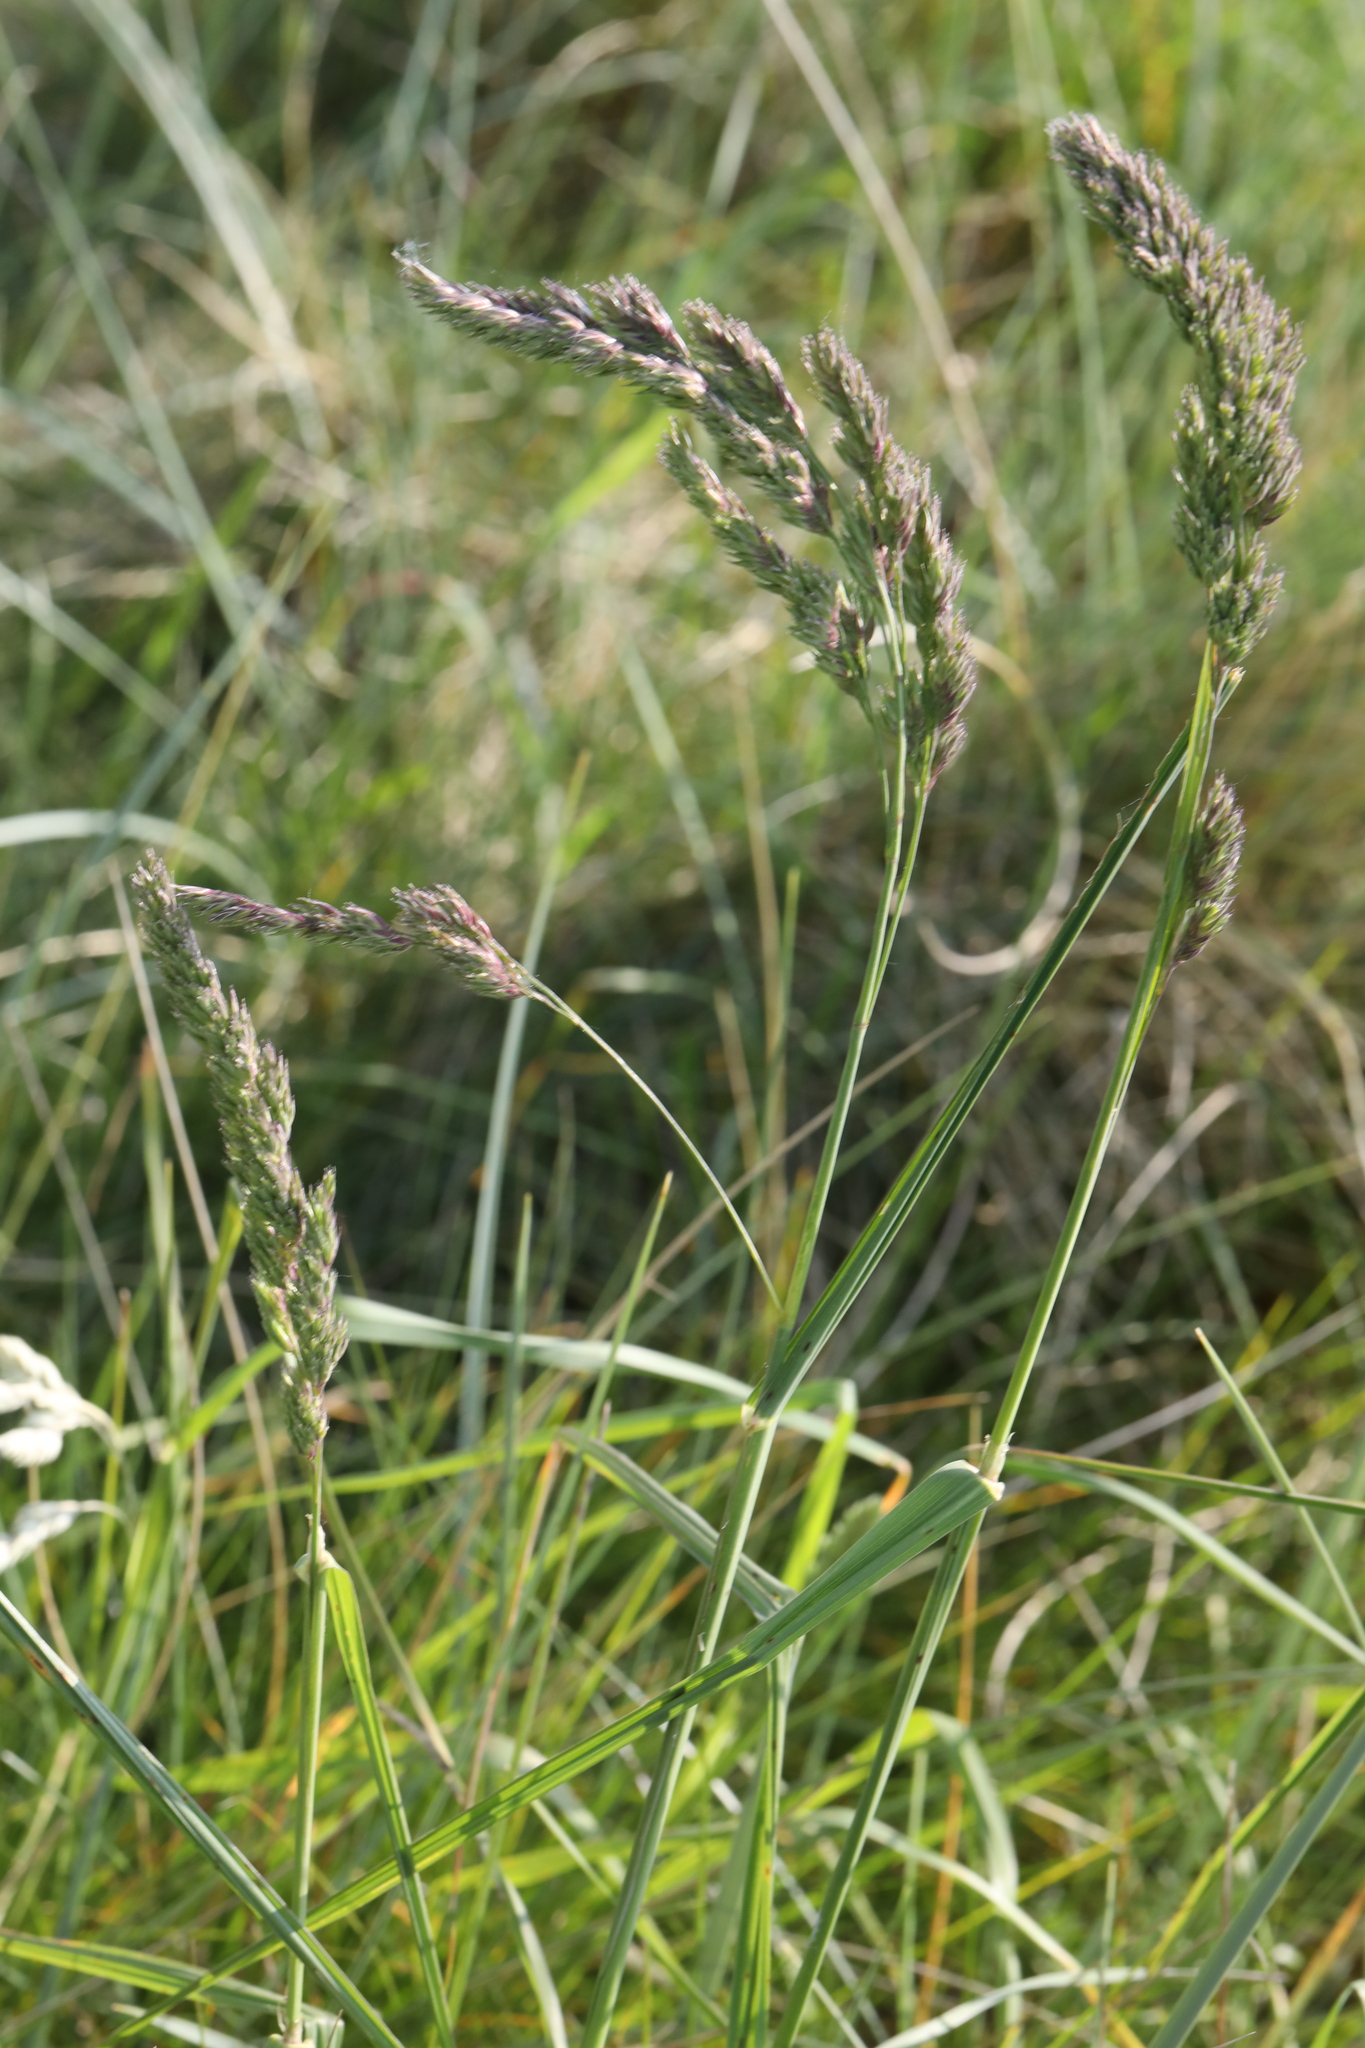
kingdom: Plantae
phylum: Tracheophyta
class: Liliopsida
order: Poales
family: Poaceae
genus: Dactylis
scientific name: Dactylis glomerata
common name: Orchardgrass
